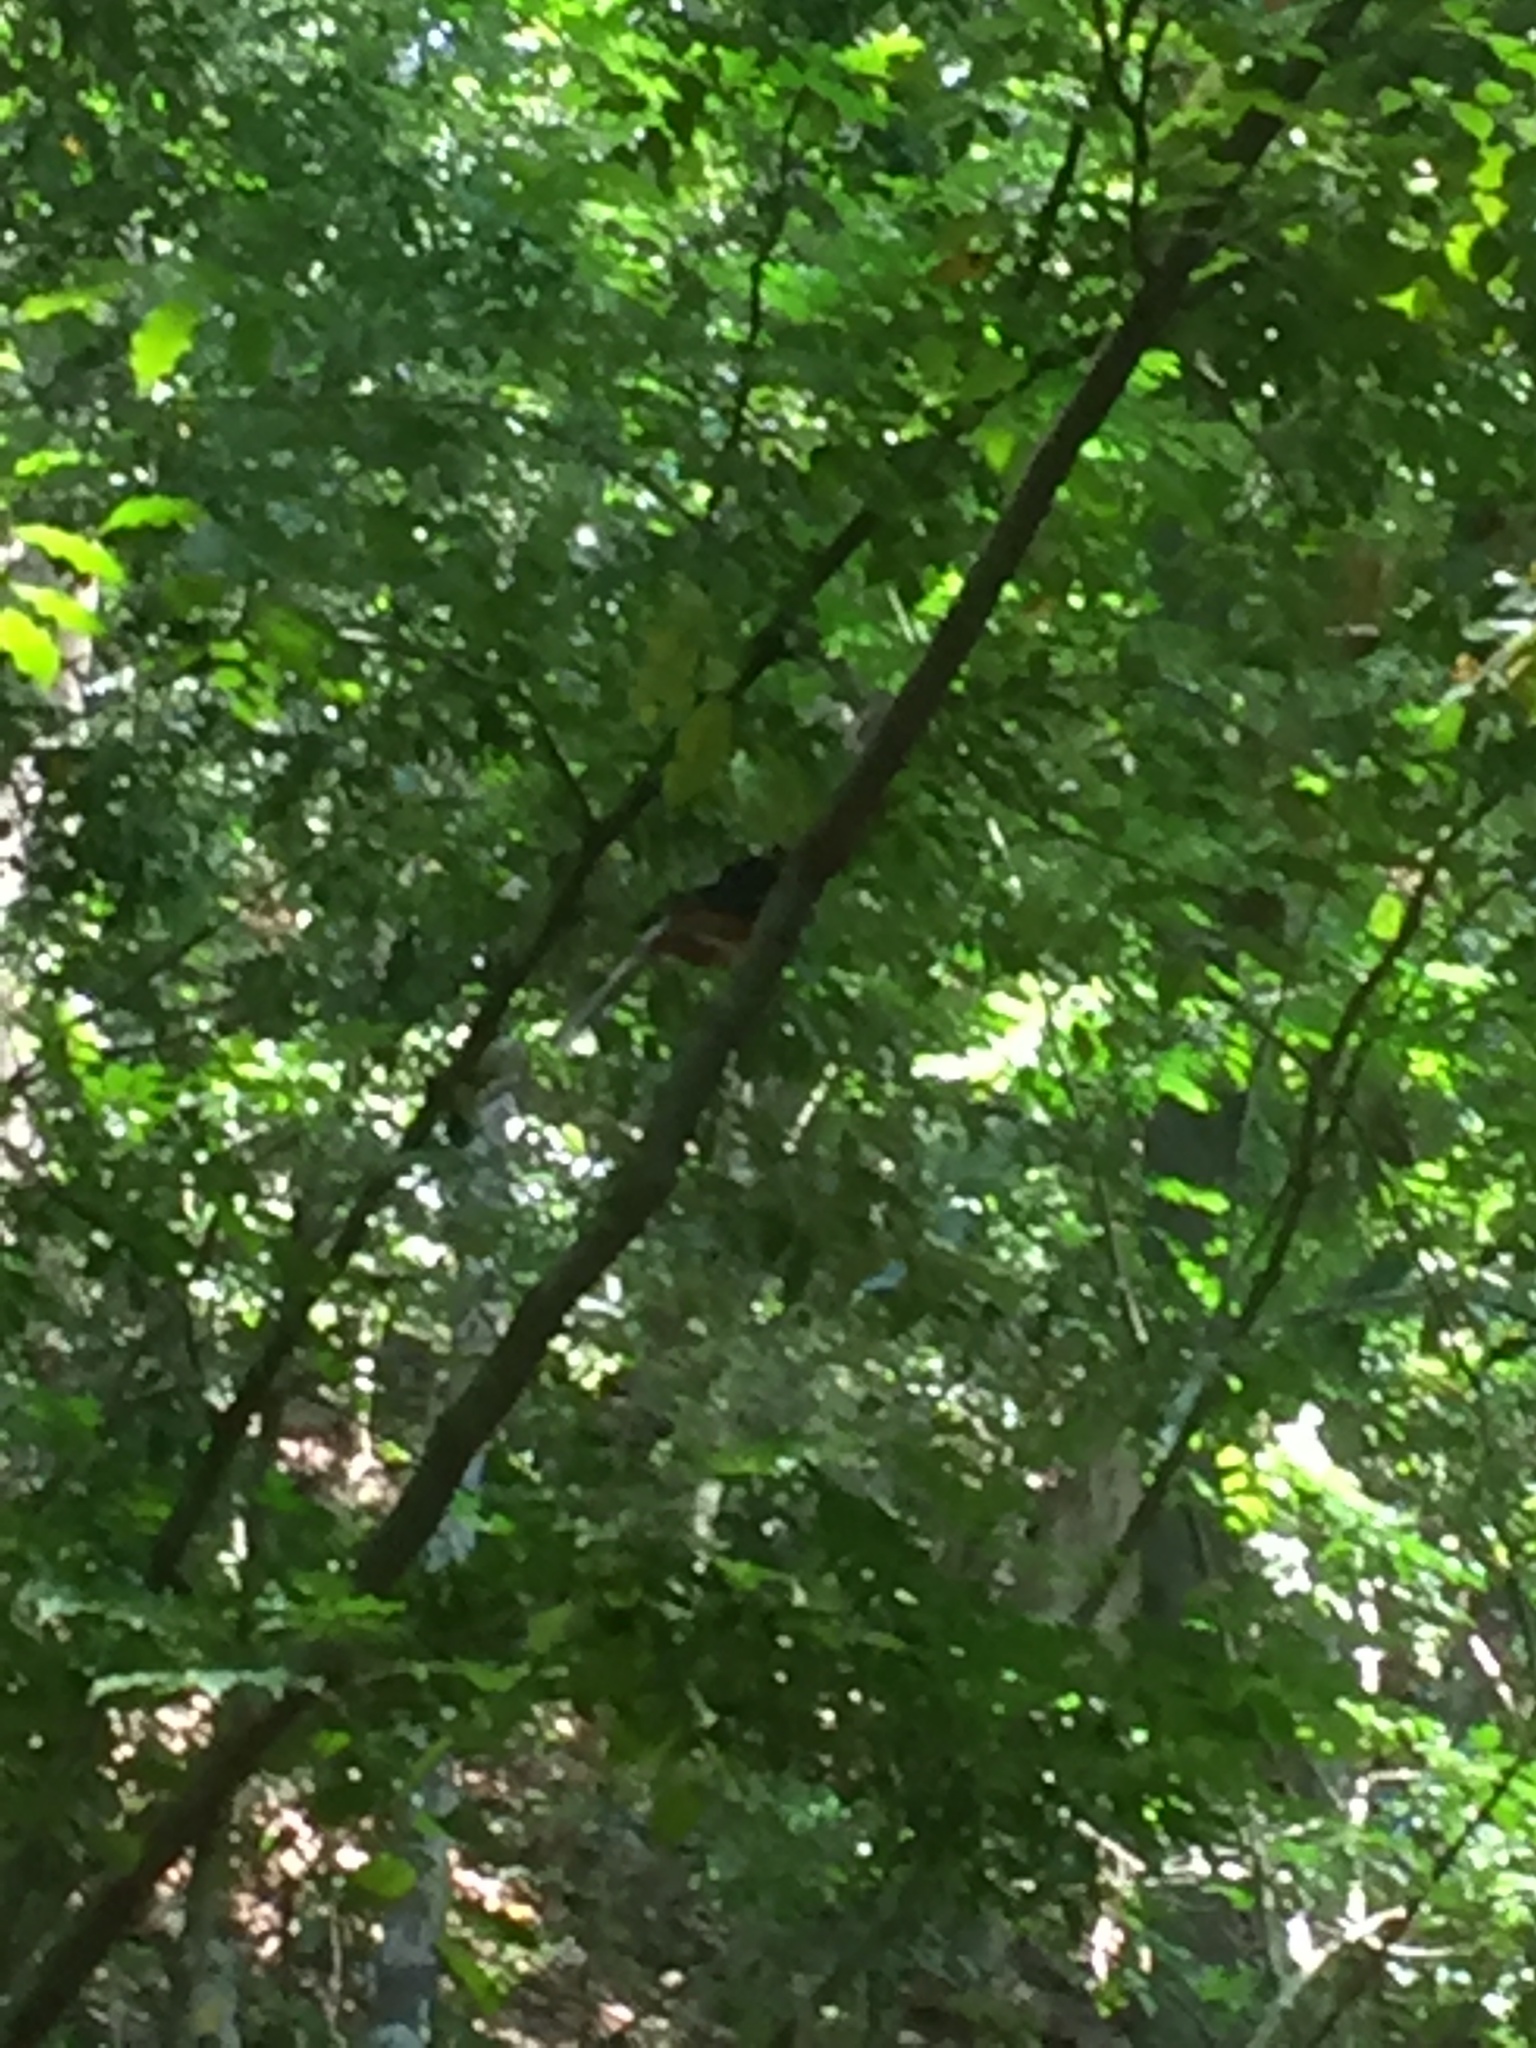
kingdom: Animalia
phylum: Chordata
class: Aves
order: Passeriformes
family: Muscicapidae
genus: Copsychus
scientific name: Copsychus malabaricus
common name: White-rumped shama
